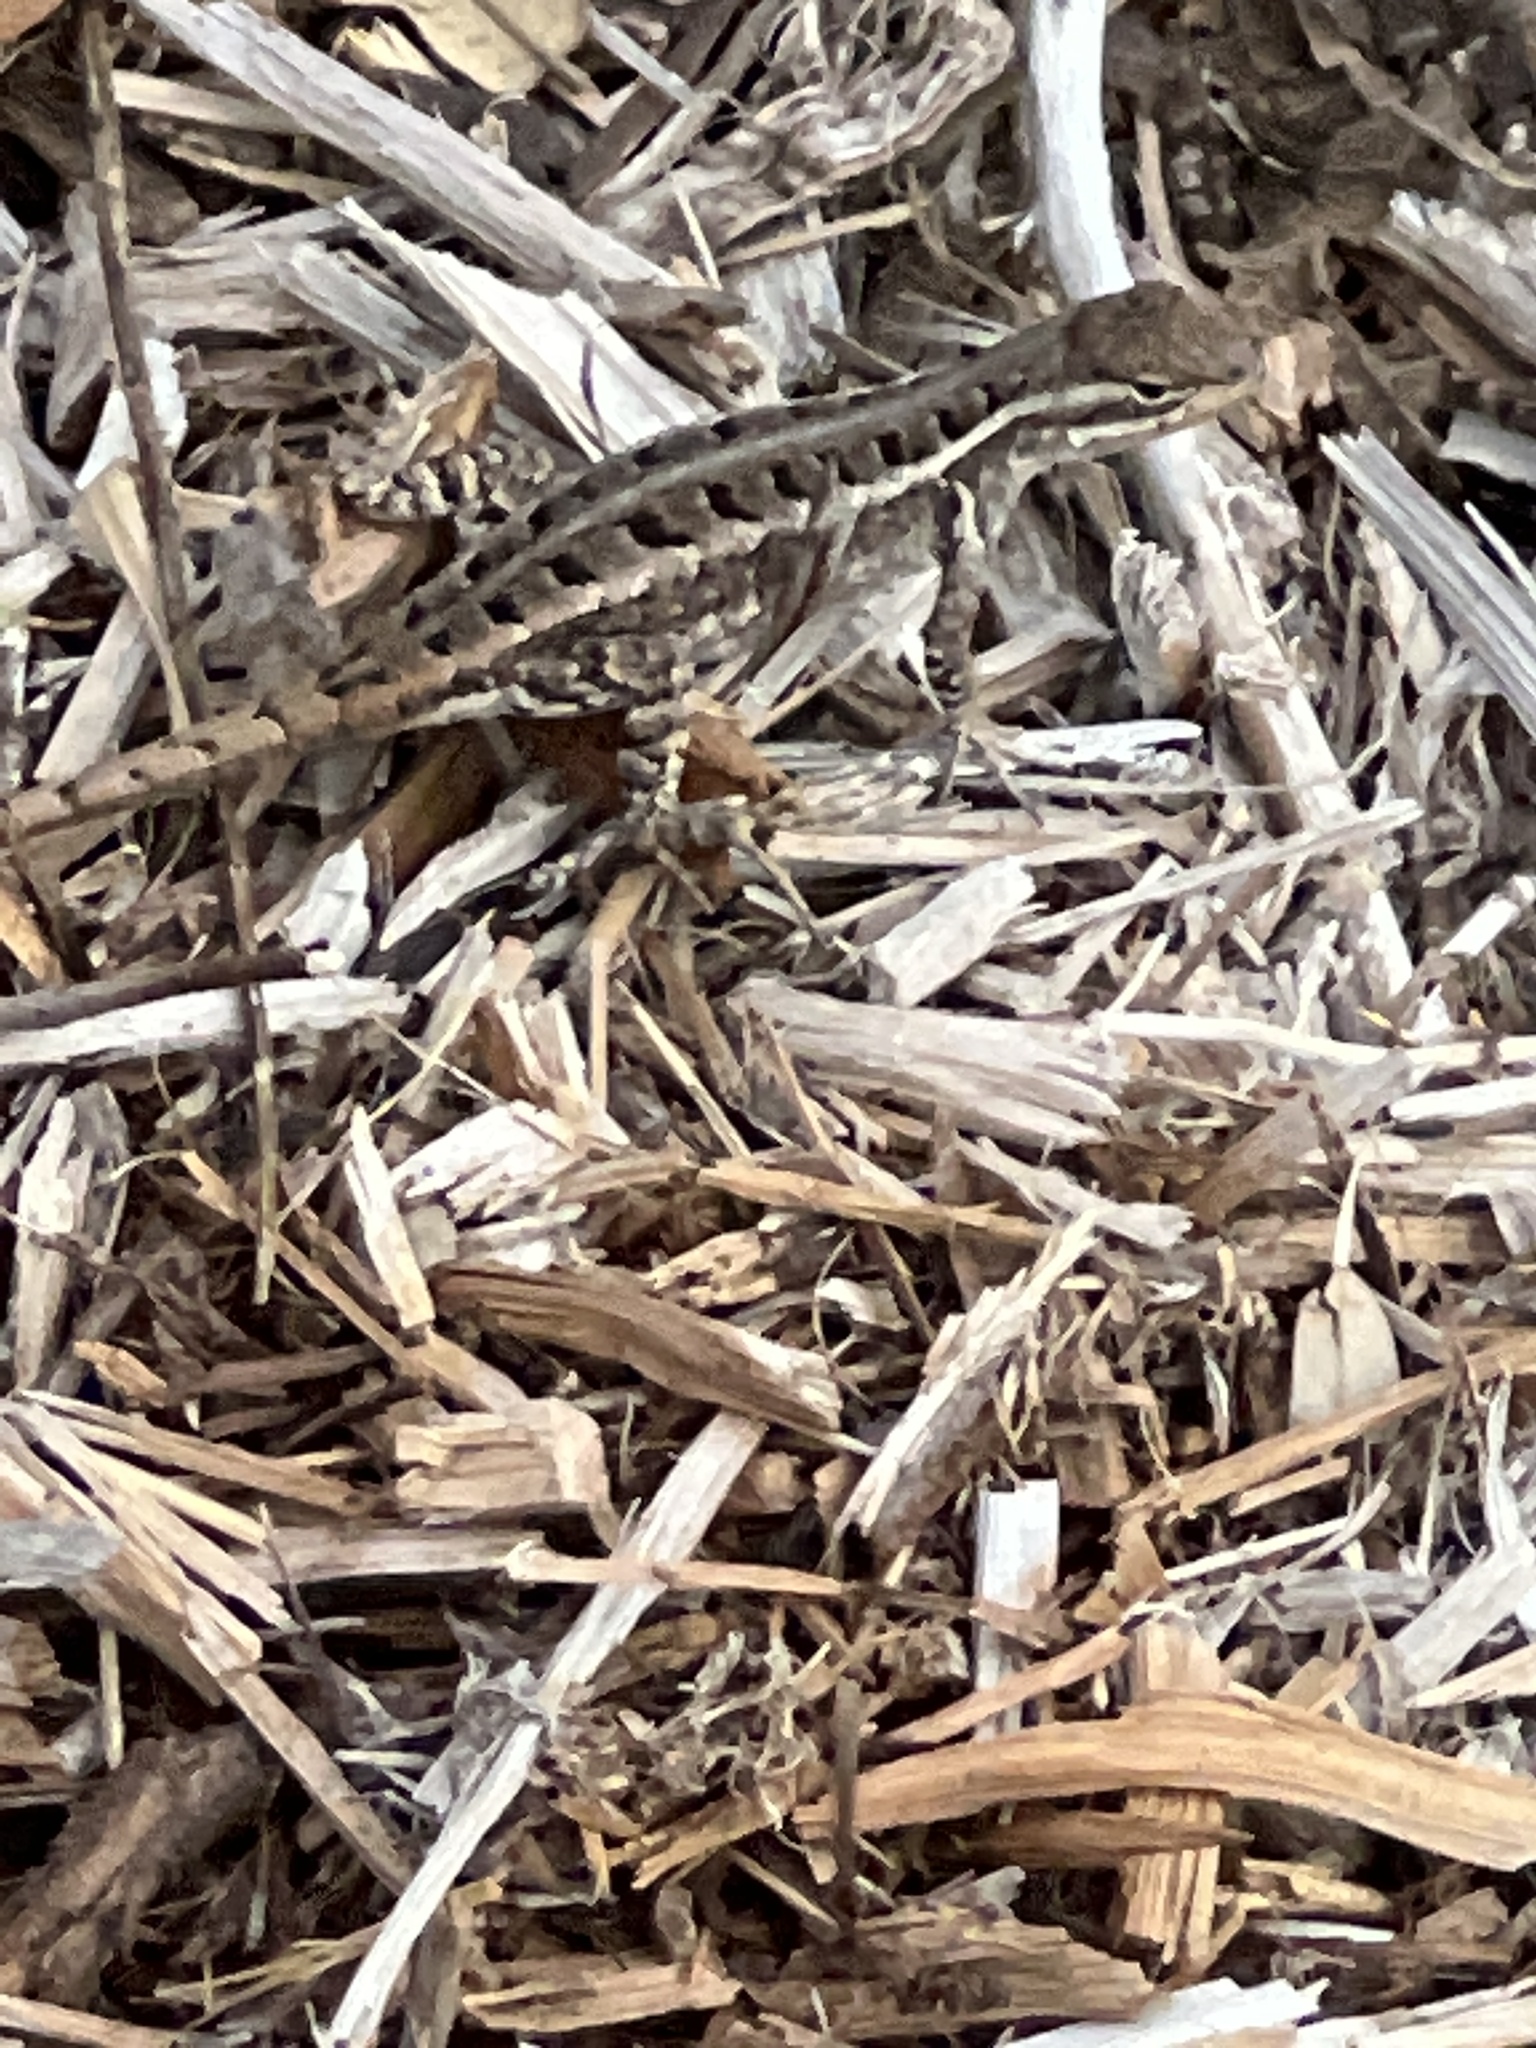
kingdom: Animalia
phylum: Chordata
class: Squamata
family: Phrynosomatidae
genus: Sceloporus
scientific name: Sceloporus variabilis
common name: Rosebelly lizard
